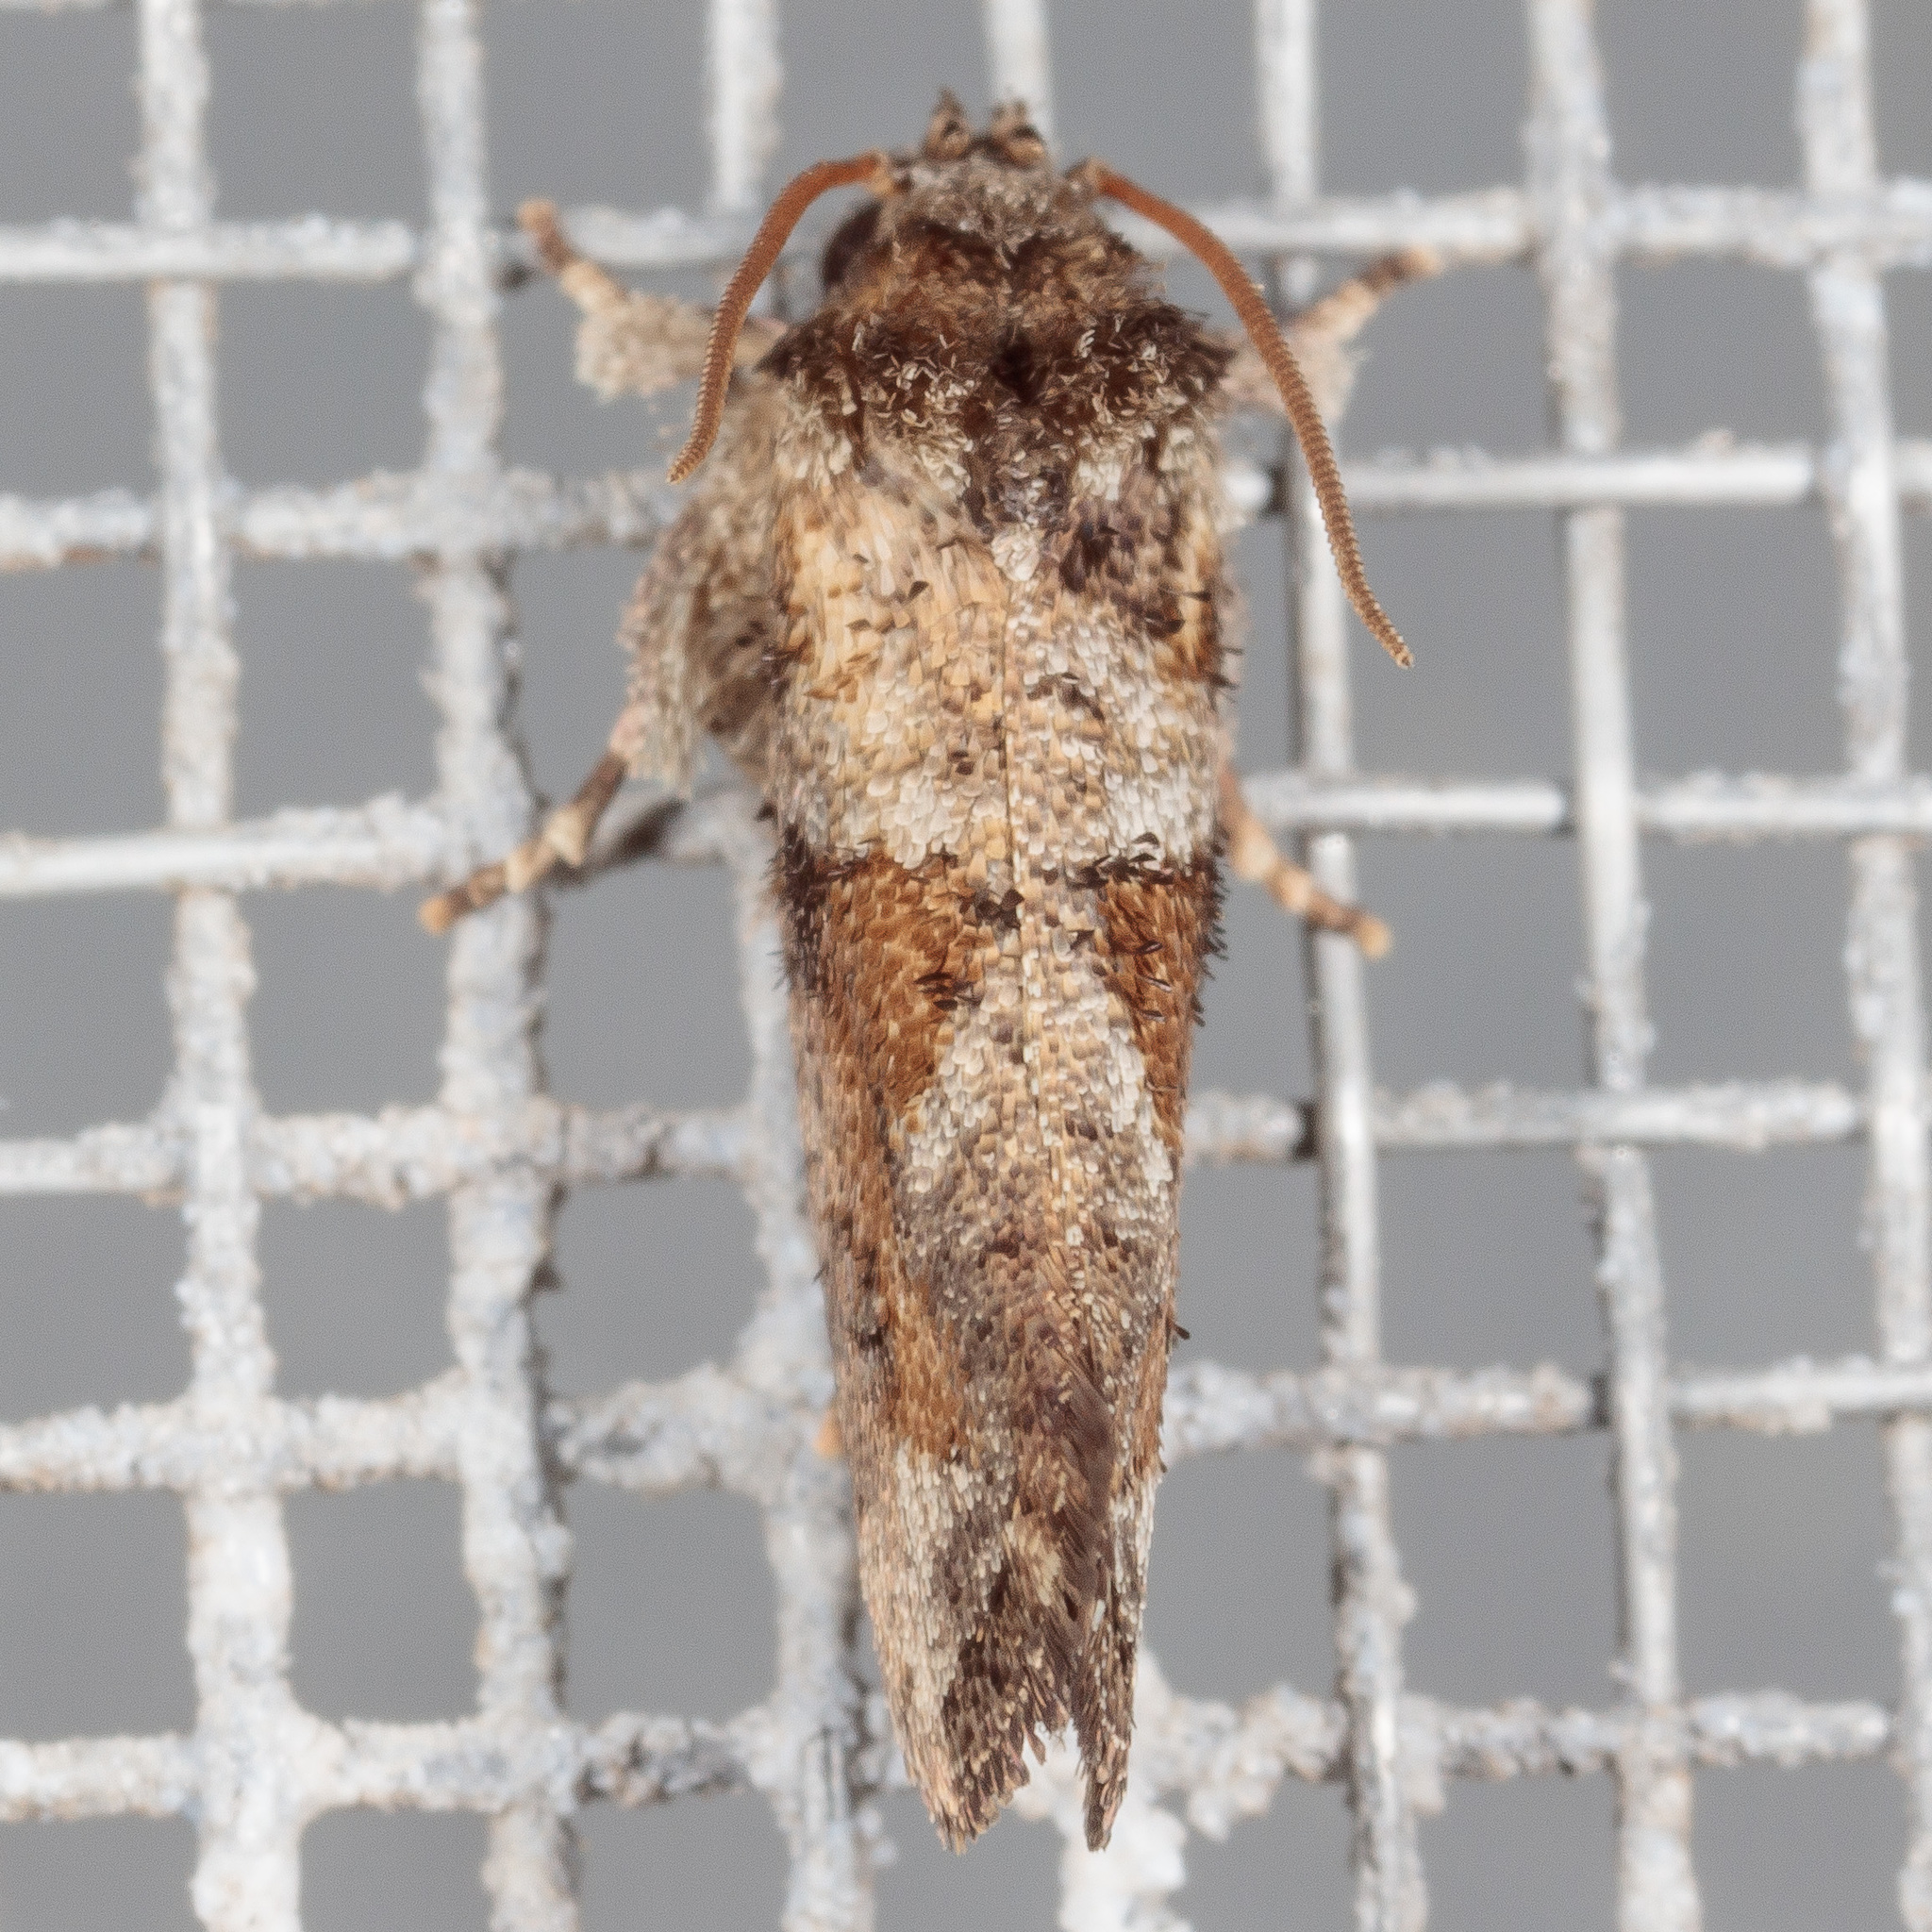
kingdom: Animalia
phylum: Arthropoda
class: Insecta
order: Lepidoptera
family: Tineidae
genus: Acrolophus
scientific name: Acrolophus piger
